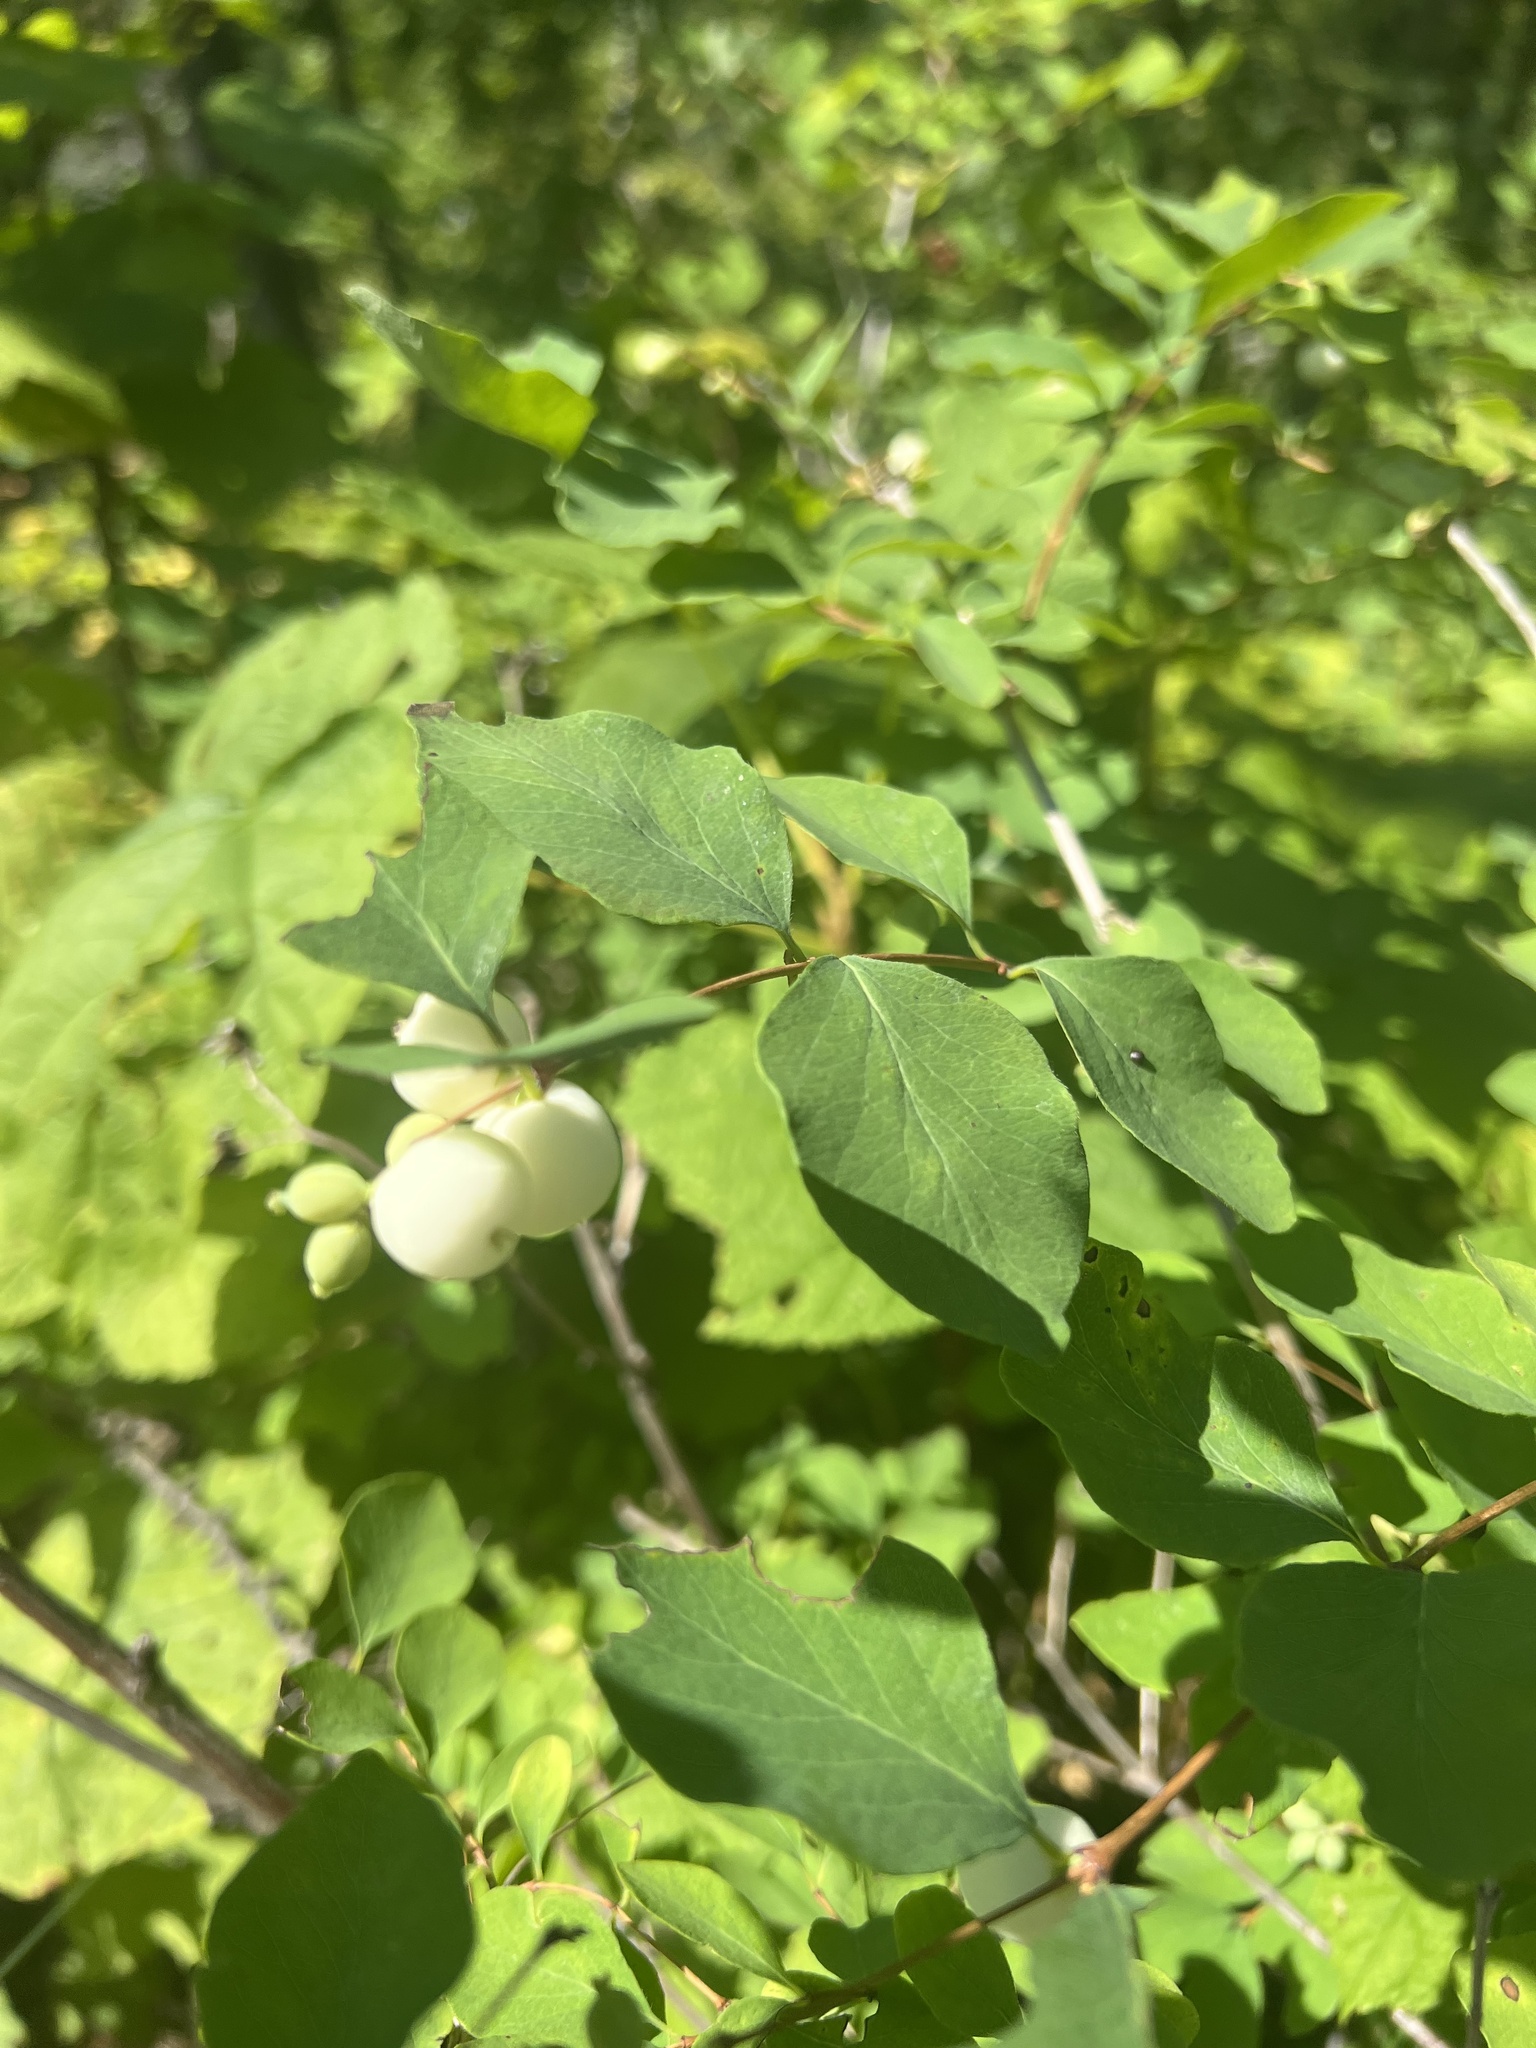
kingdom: Plantae
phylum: Tracheophyta
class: Magnoliopsida
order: Dipsacales
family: Caprifoliaceae
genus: Symphoricarpos
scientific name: Symphoricarpos albus
